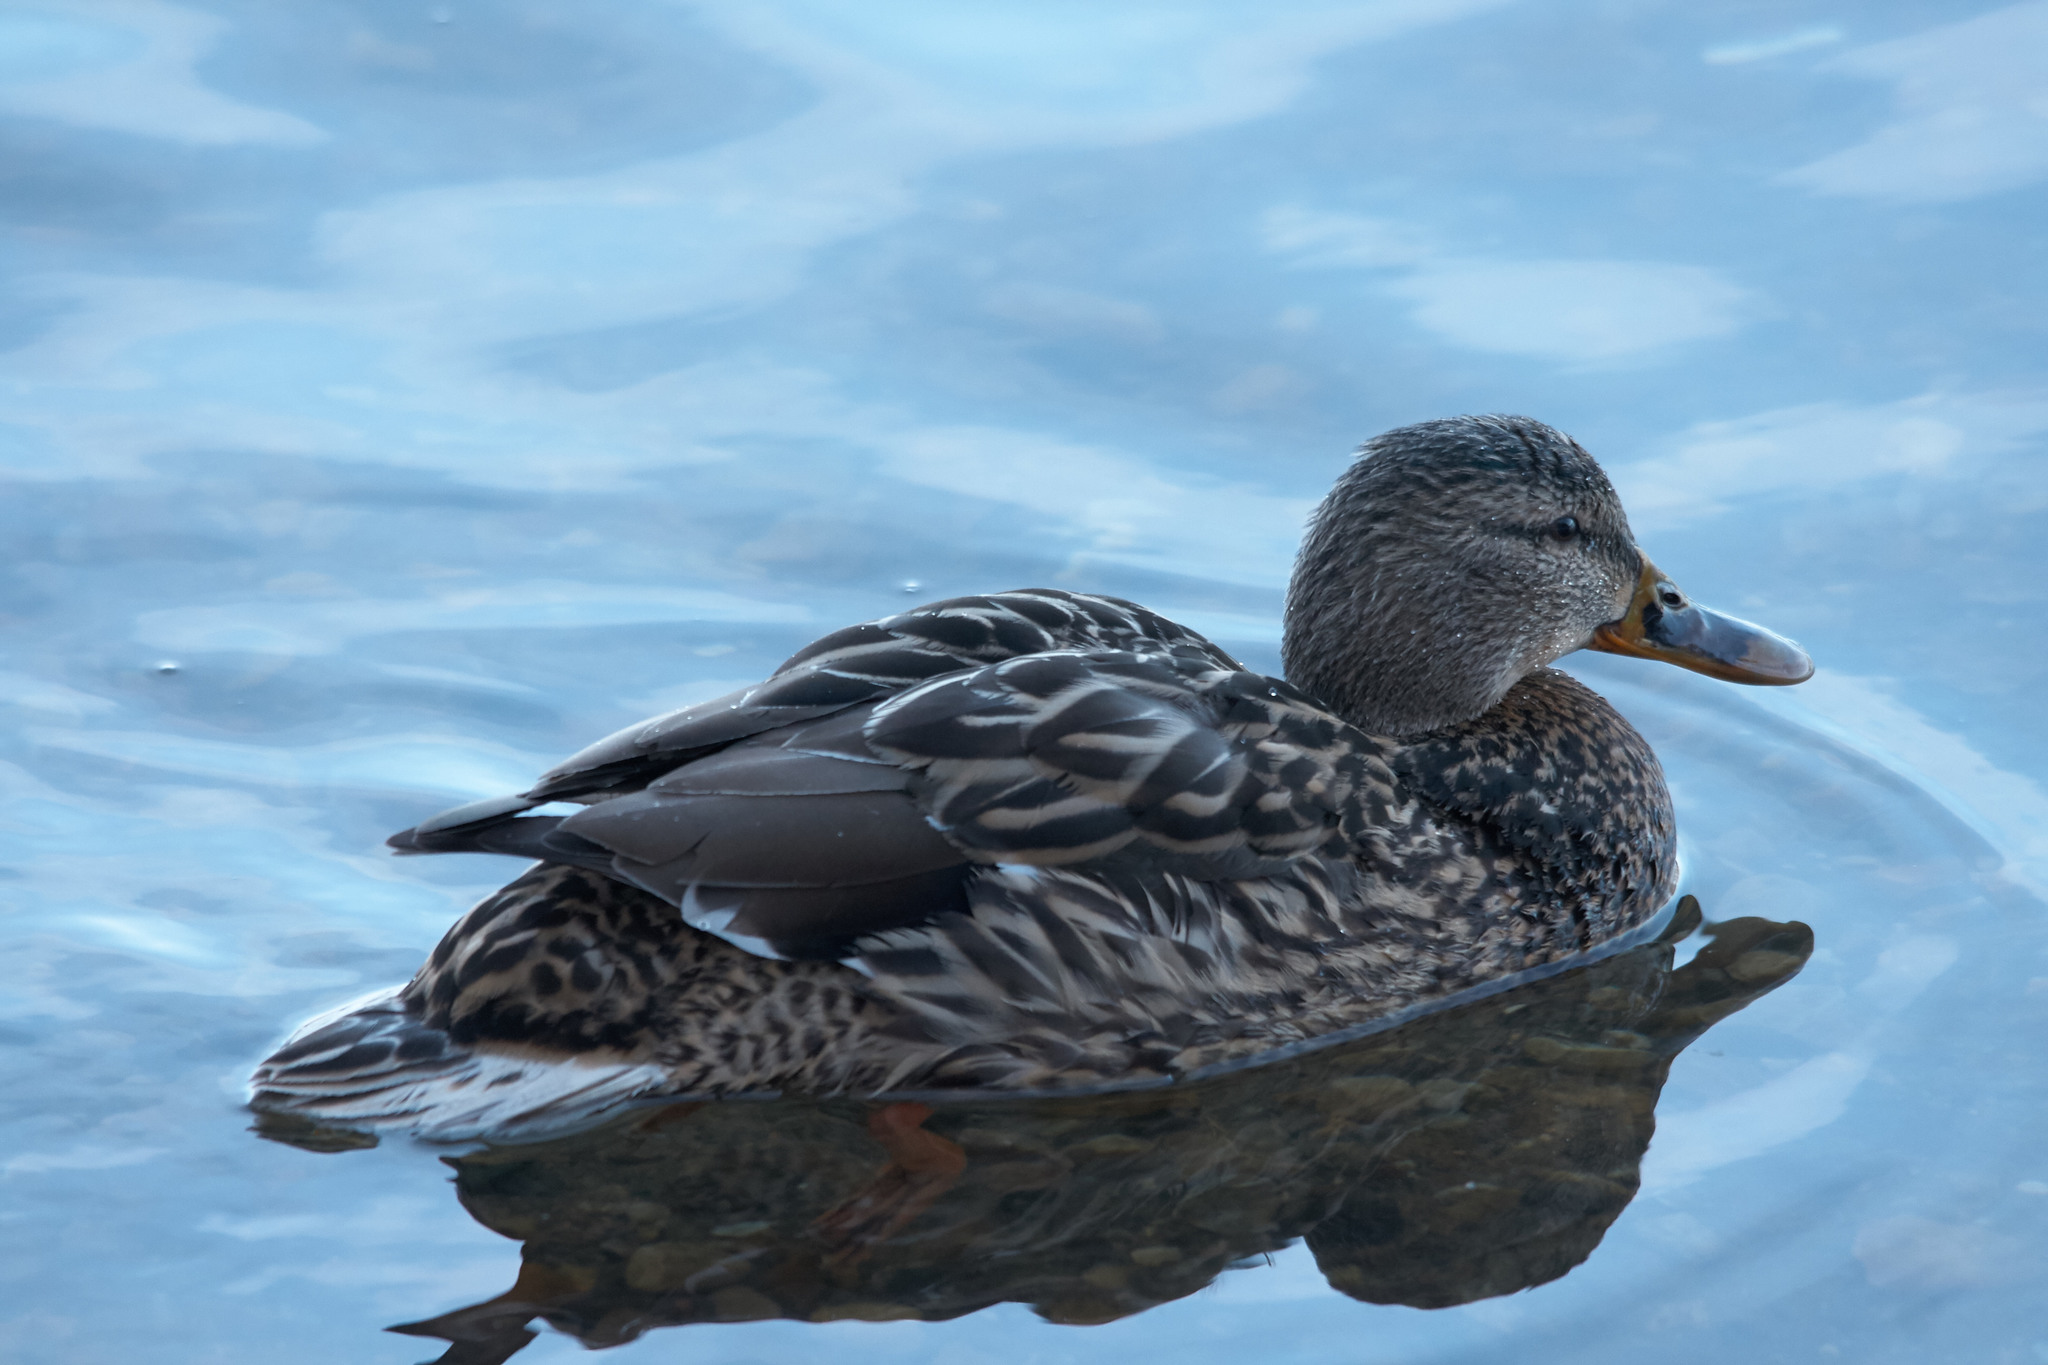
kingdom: Animalia
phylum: Chordata
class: Aves
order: Anseriformes
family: Anatidae
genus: Anas
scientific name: Anas platyrhynchos
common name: Mallard
